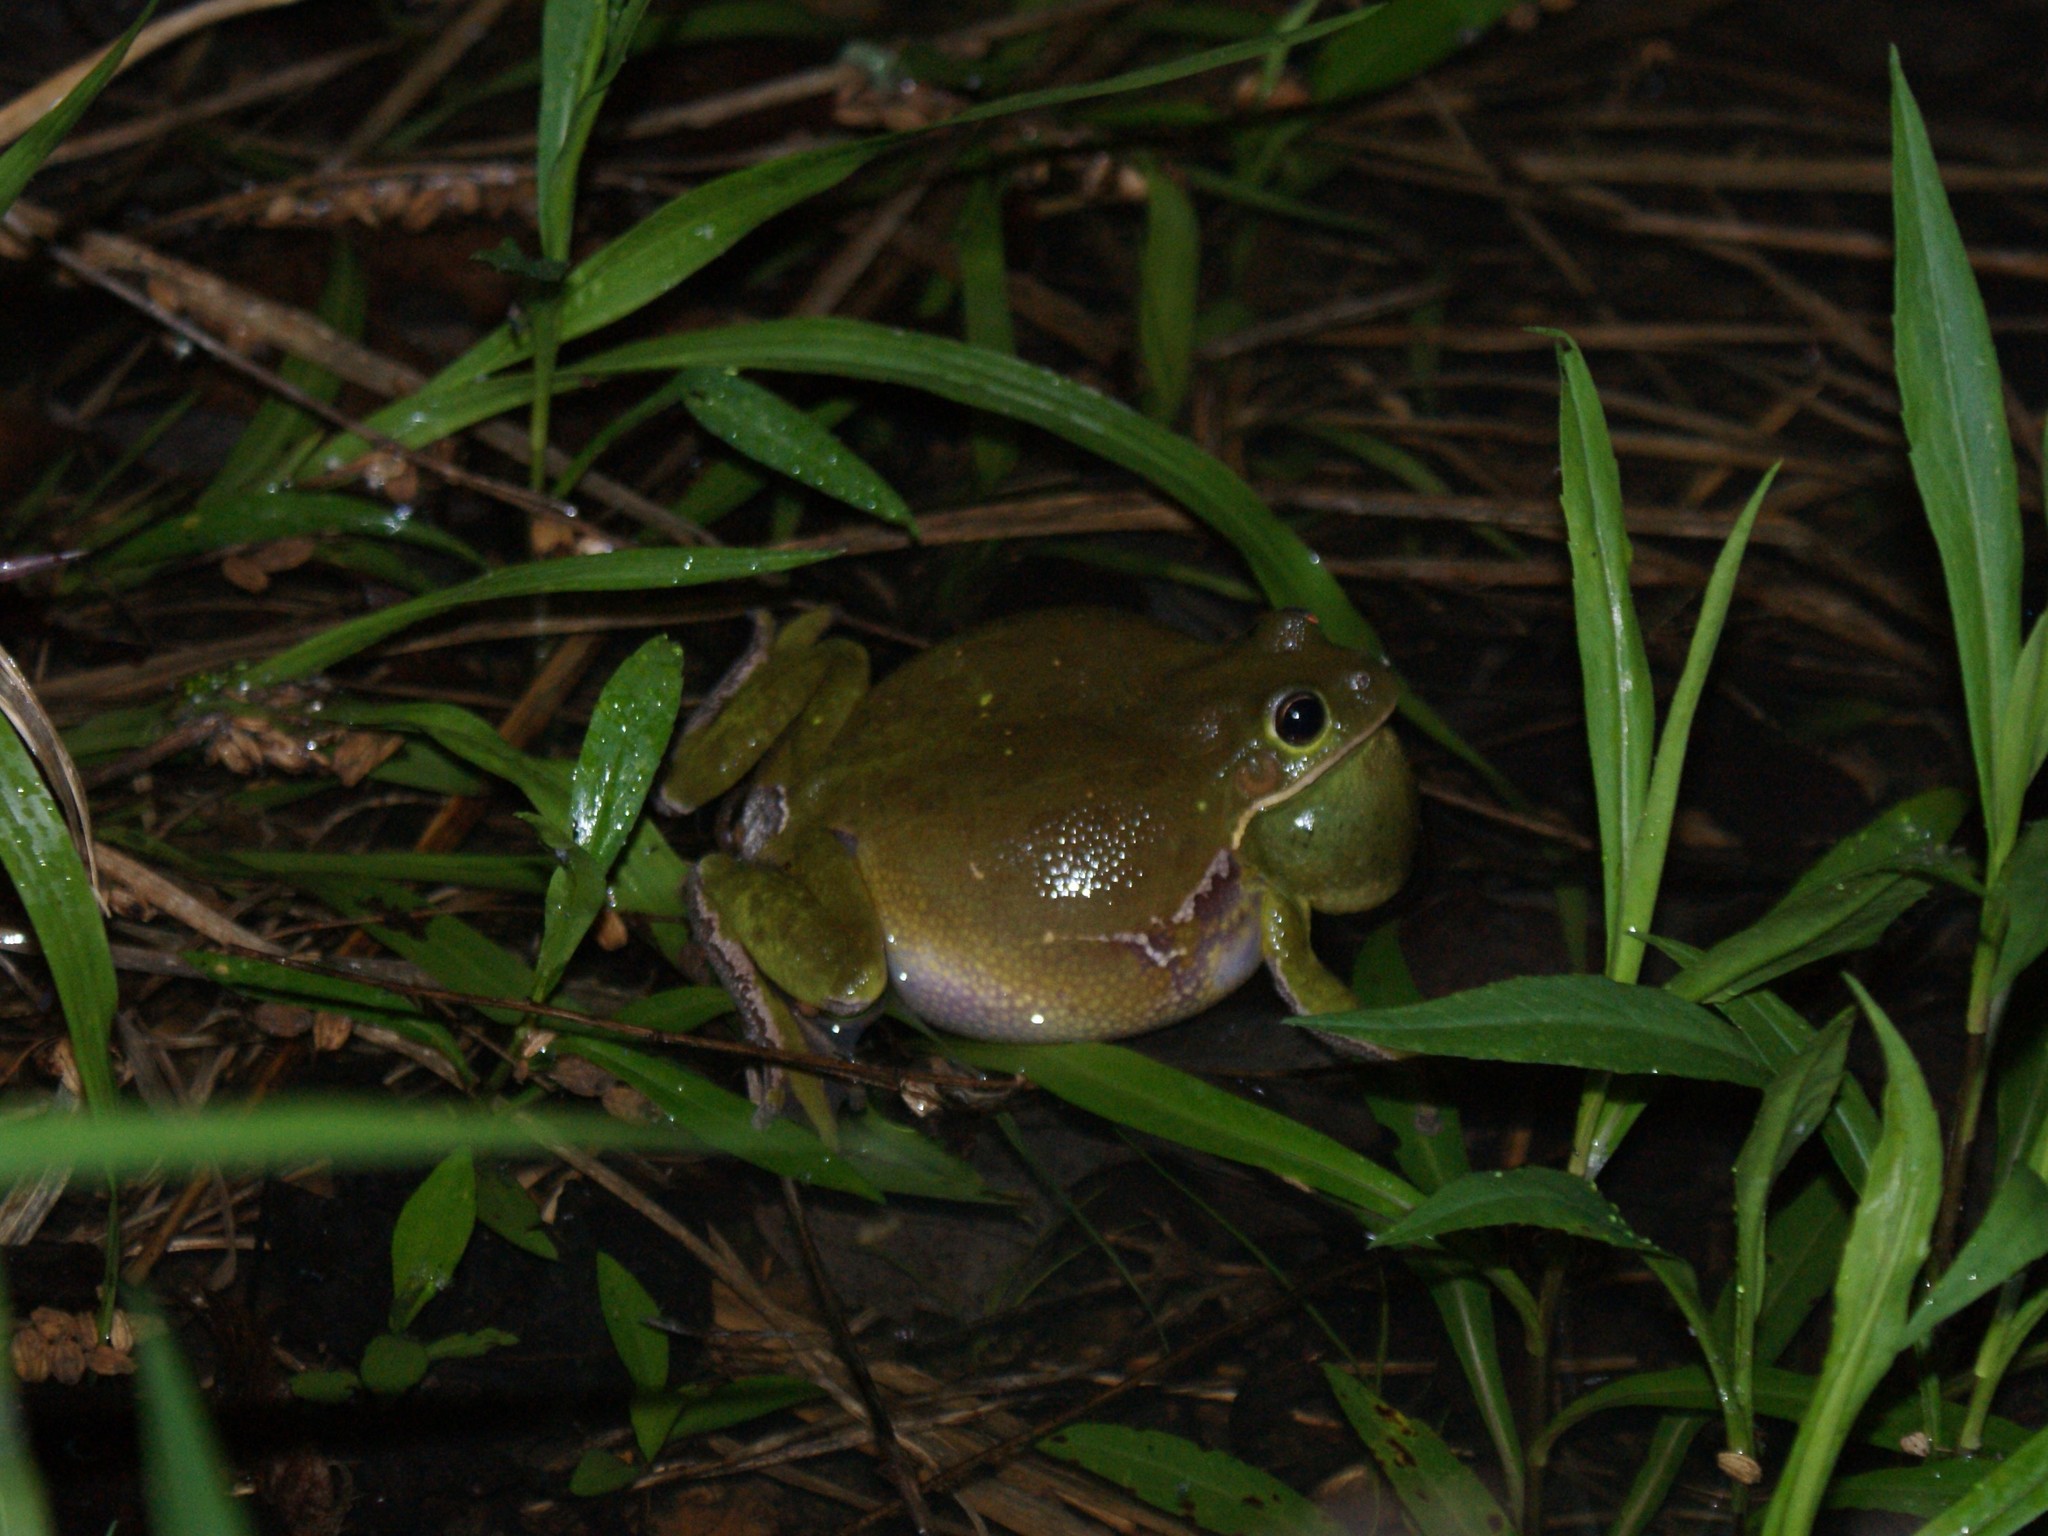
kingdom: Animalia
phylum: Chordata
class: Amphibia
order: Anura
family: Hylidae
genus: Dryophytes
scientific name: Dryophytes gratiosus
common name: Barking treefrog
